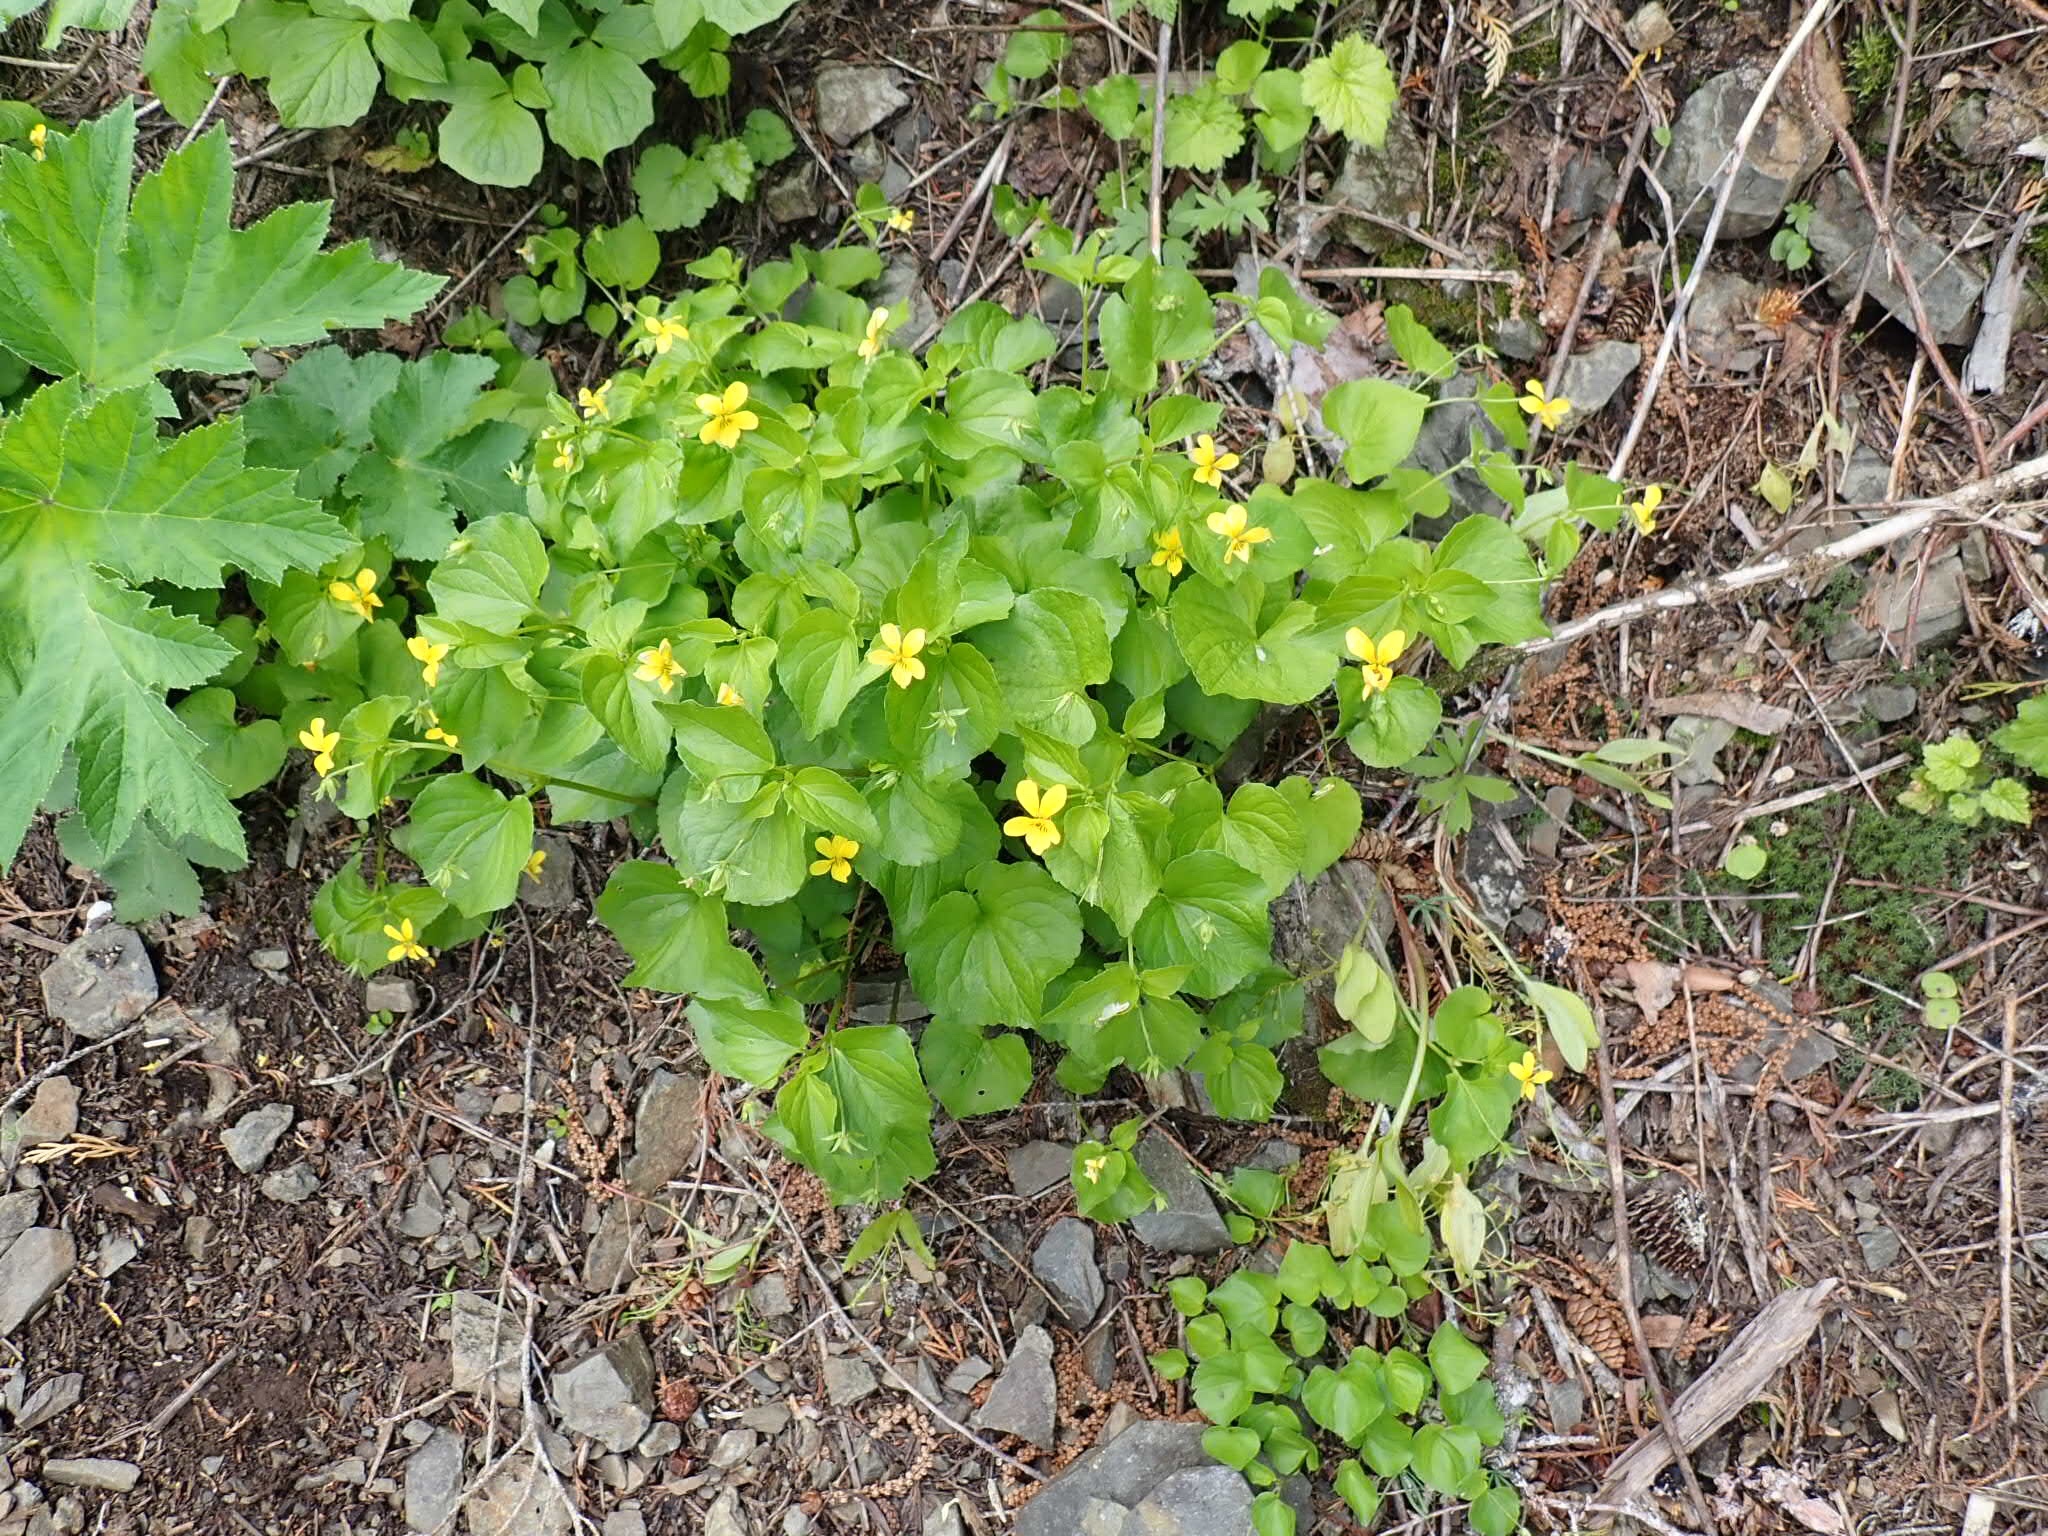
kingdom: Plantae
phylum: Tracheophyta
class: Magnoliopsida
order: Malpighiales
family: Violaceae
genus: Viola
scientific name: Viola glabella
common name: Stream violet
